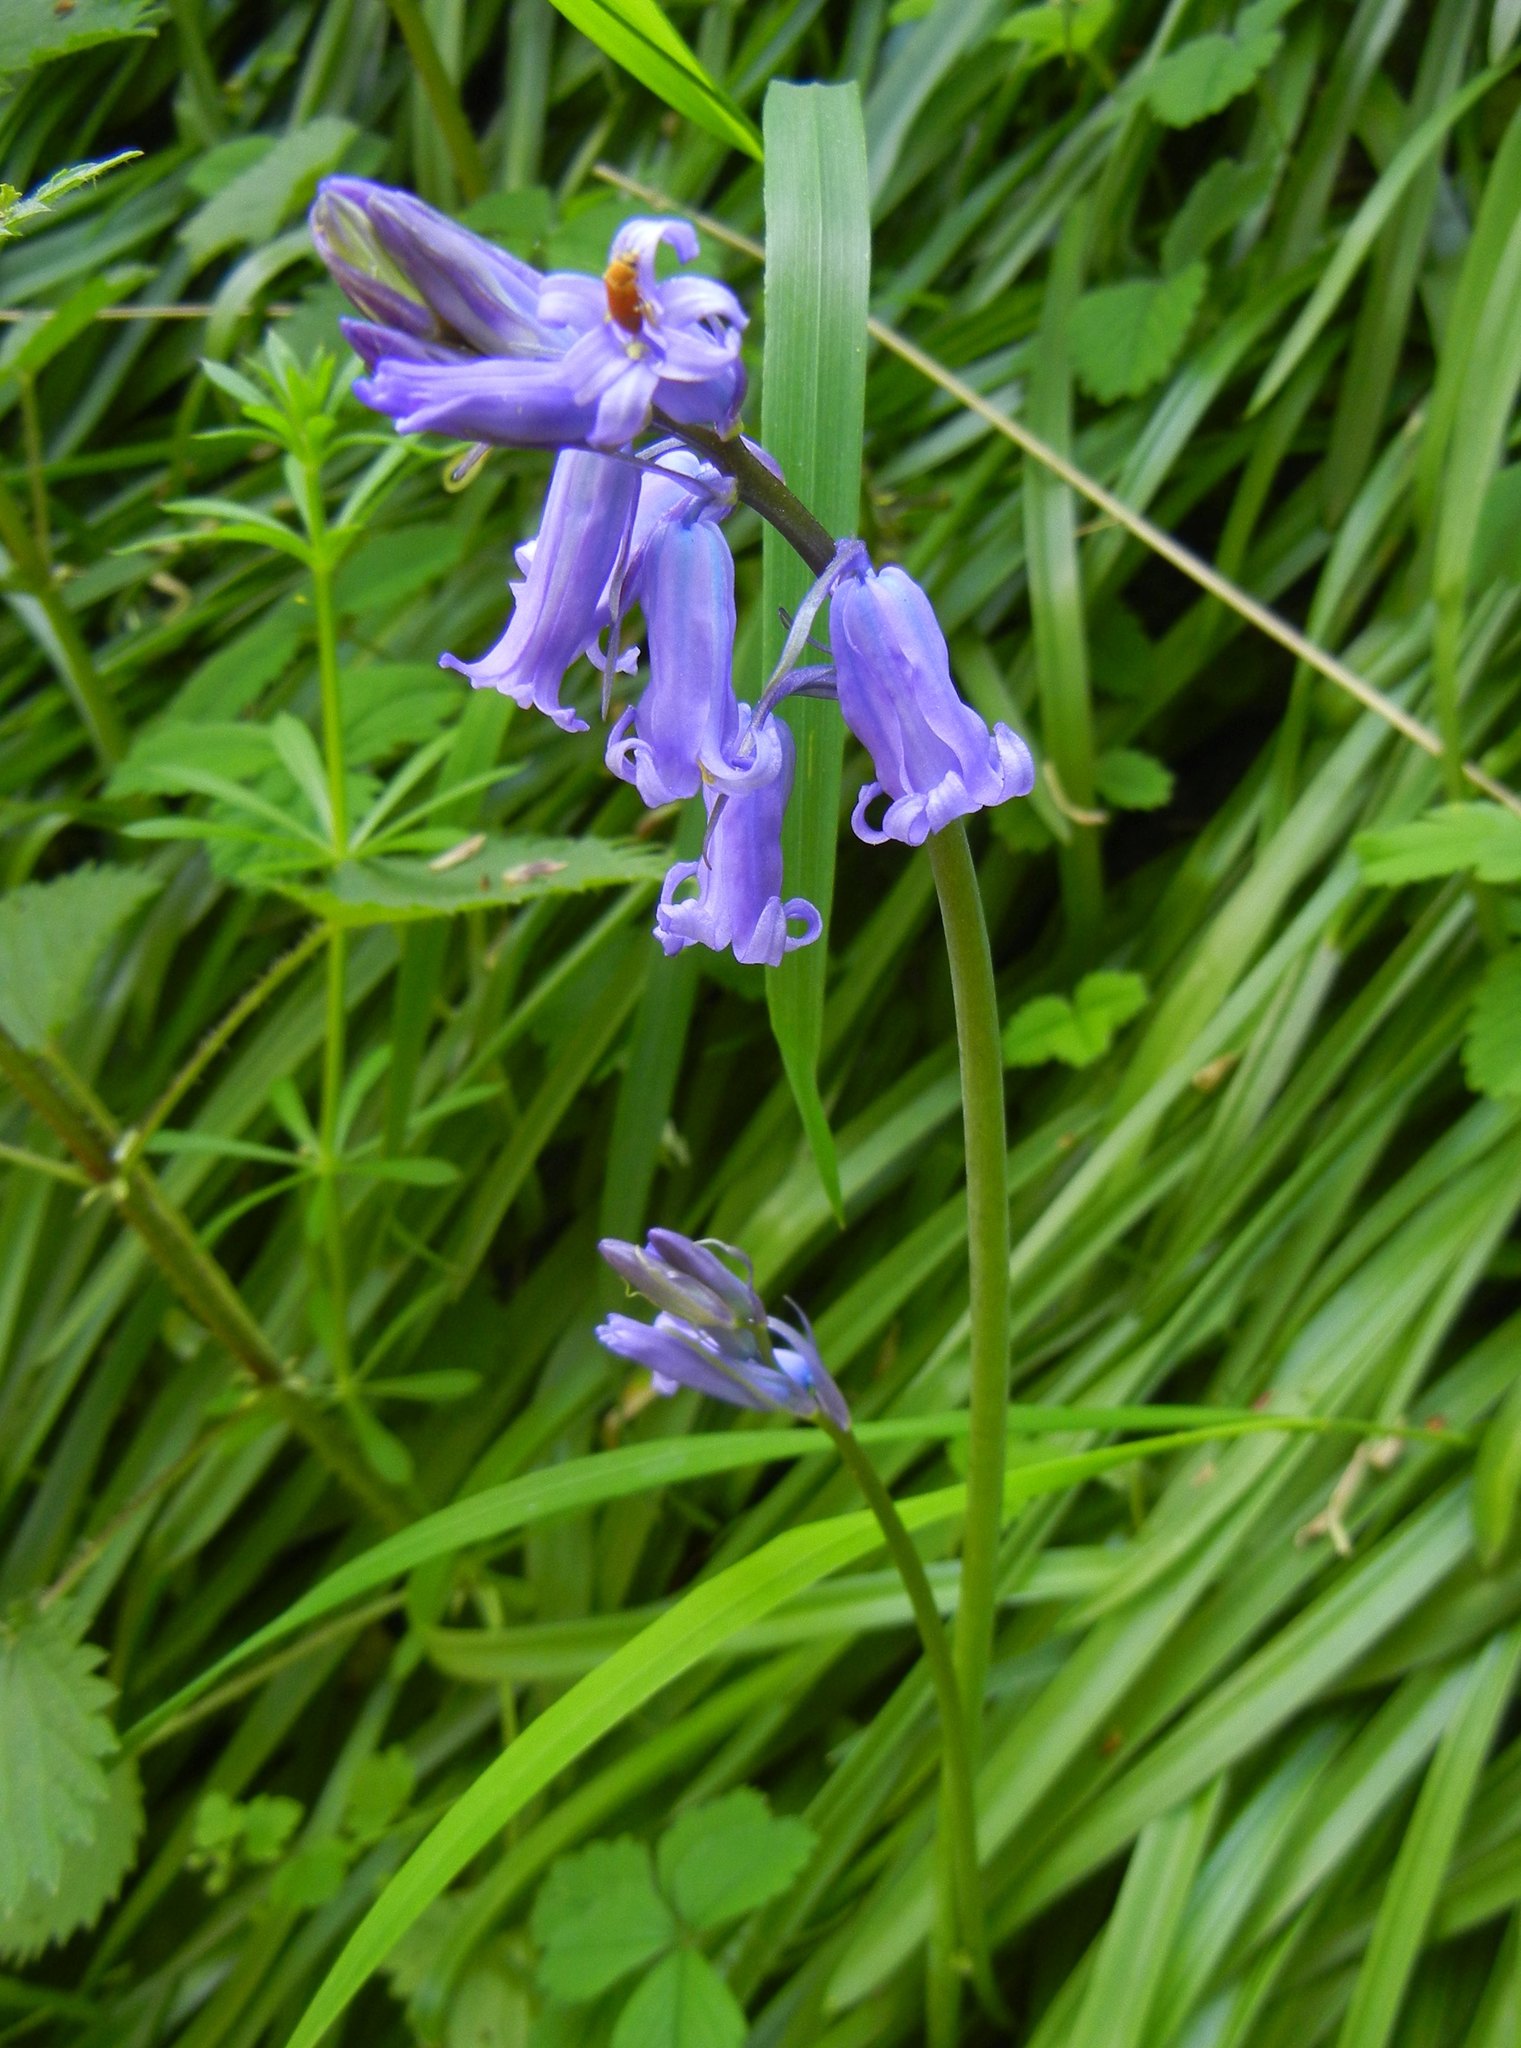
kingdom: Plantae
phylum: Tracheophyta
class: Liliopsida
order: Asparagales
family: Asparagaceae
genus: Hyacinthoides
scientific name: Hyacinthoides non-scripta
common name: Bluebell
